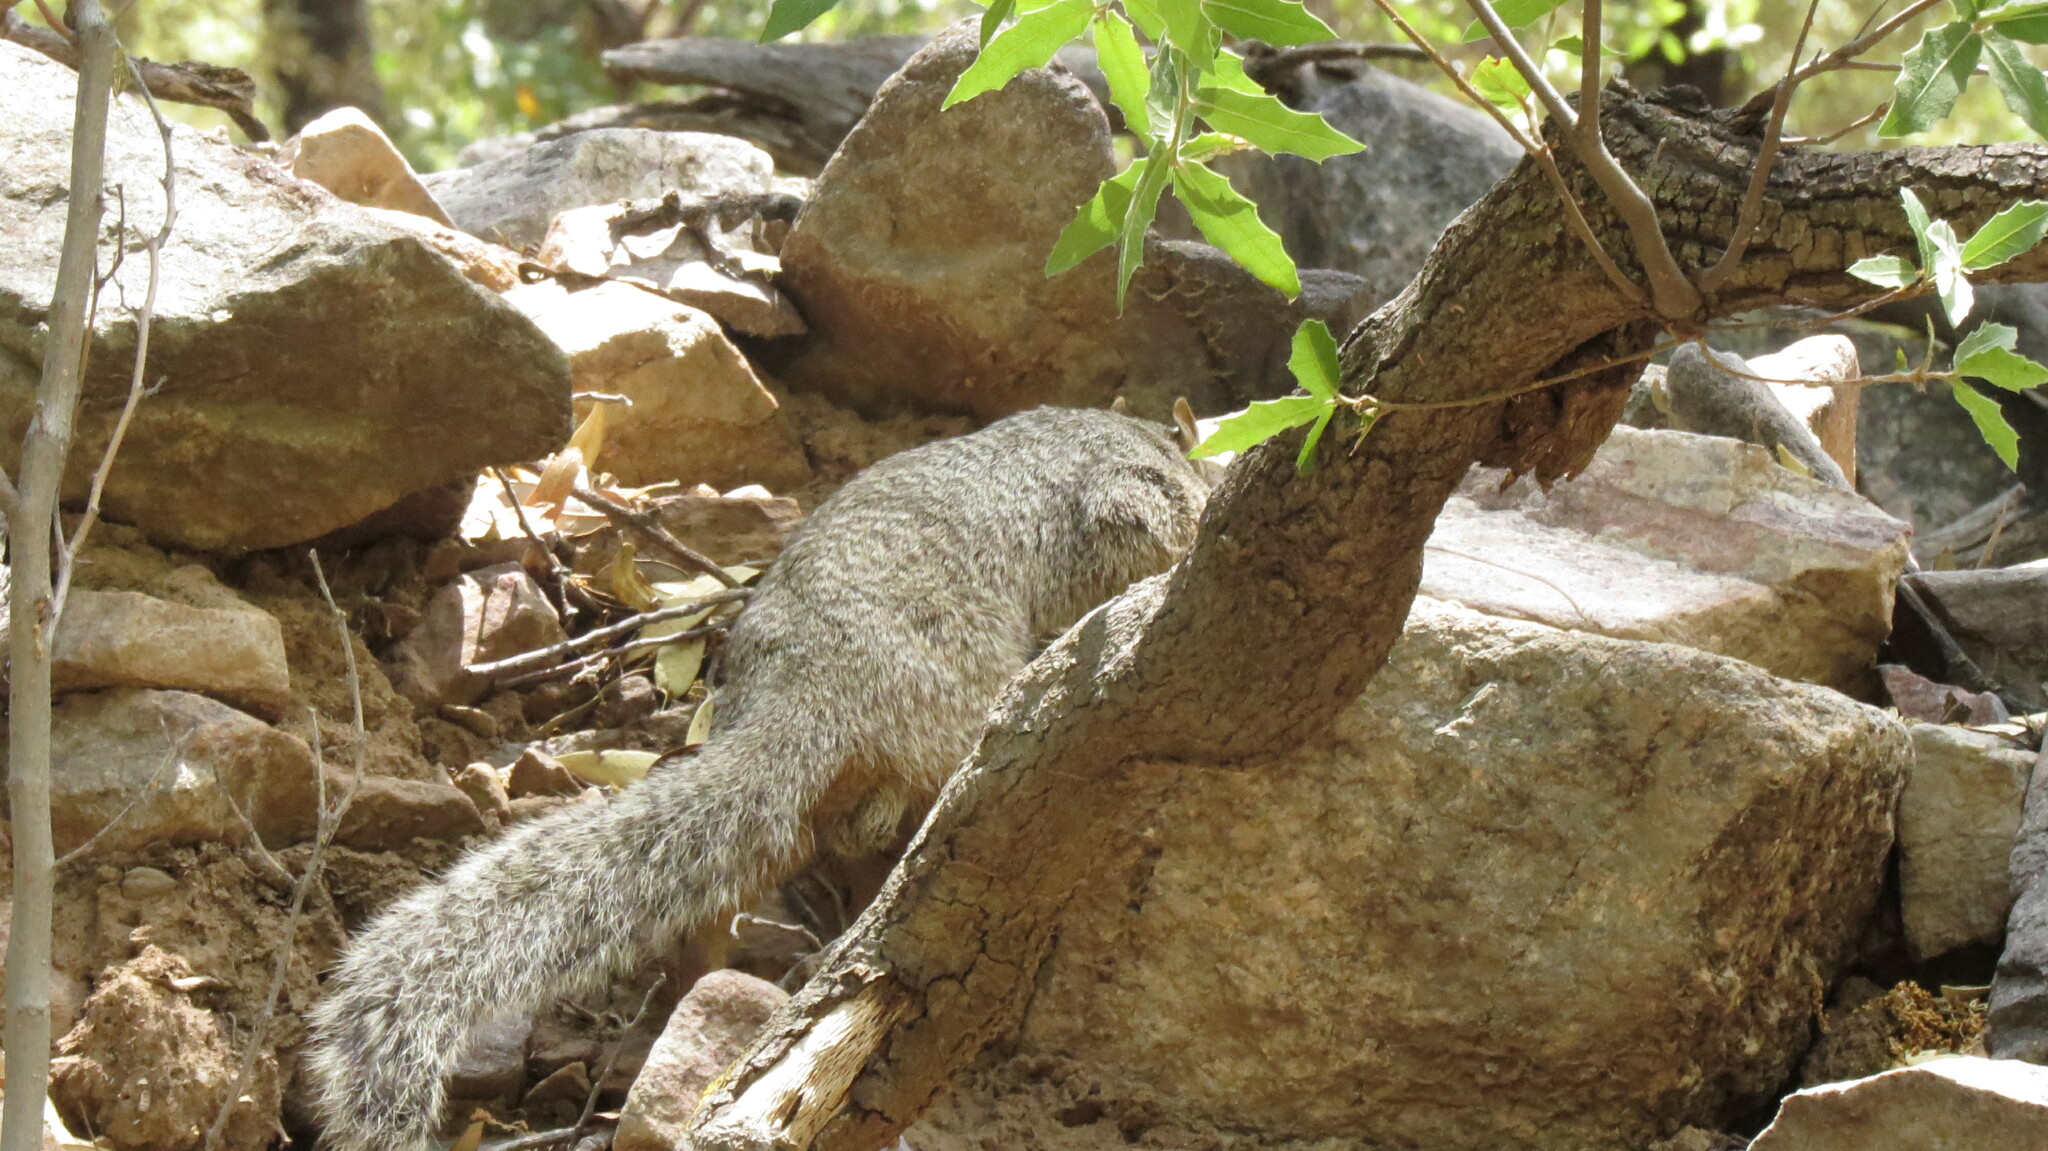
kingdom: Animalia
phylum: Chordata
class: Mammalia
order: Rodentia
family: Sciuridae
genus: Otospermophilus
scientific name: Otospermophilus variegatus
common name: Rock squirrel
